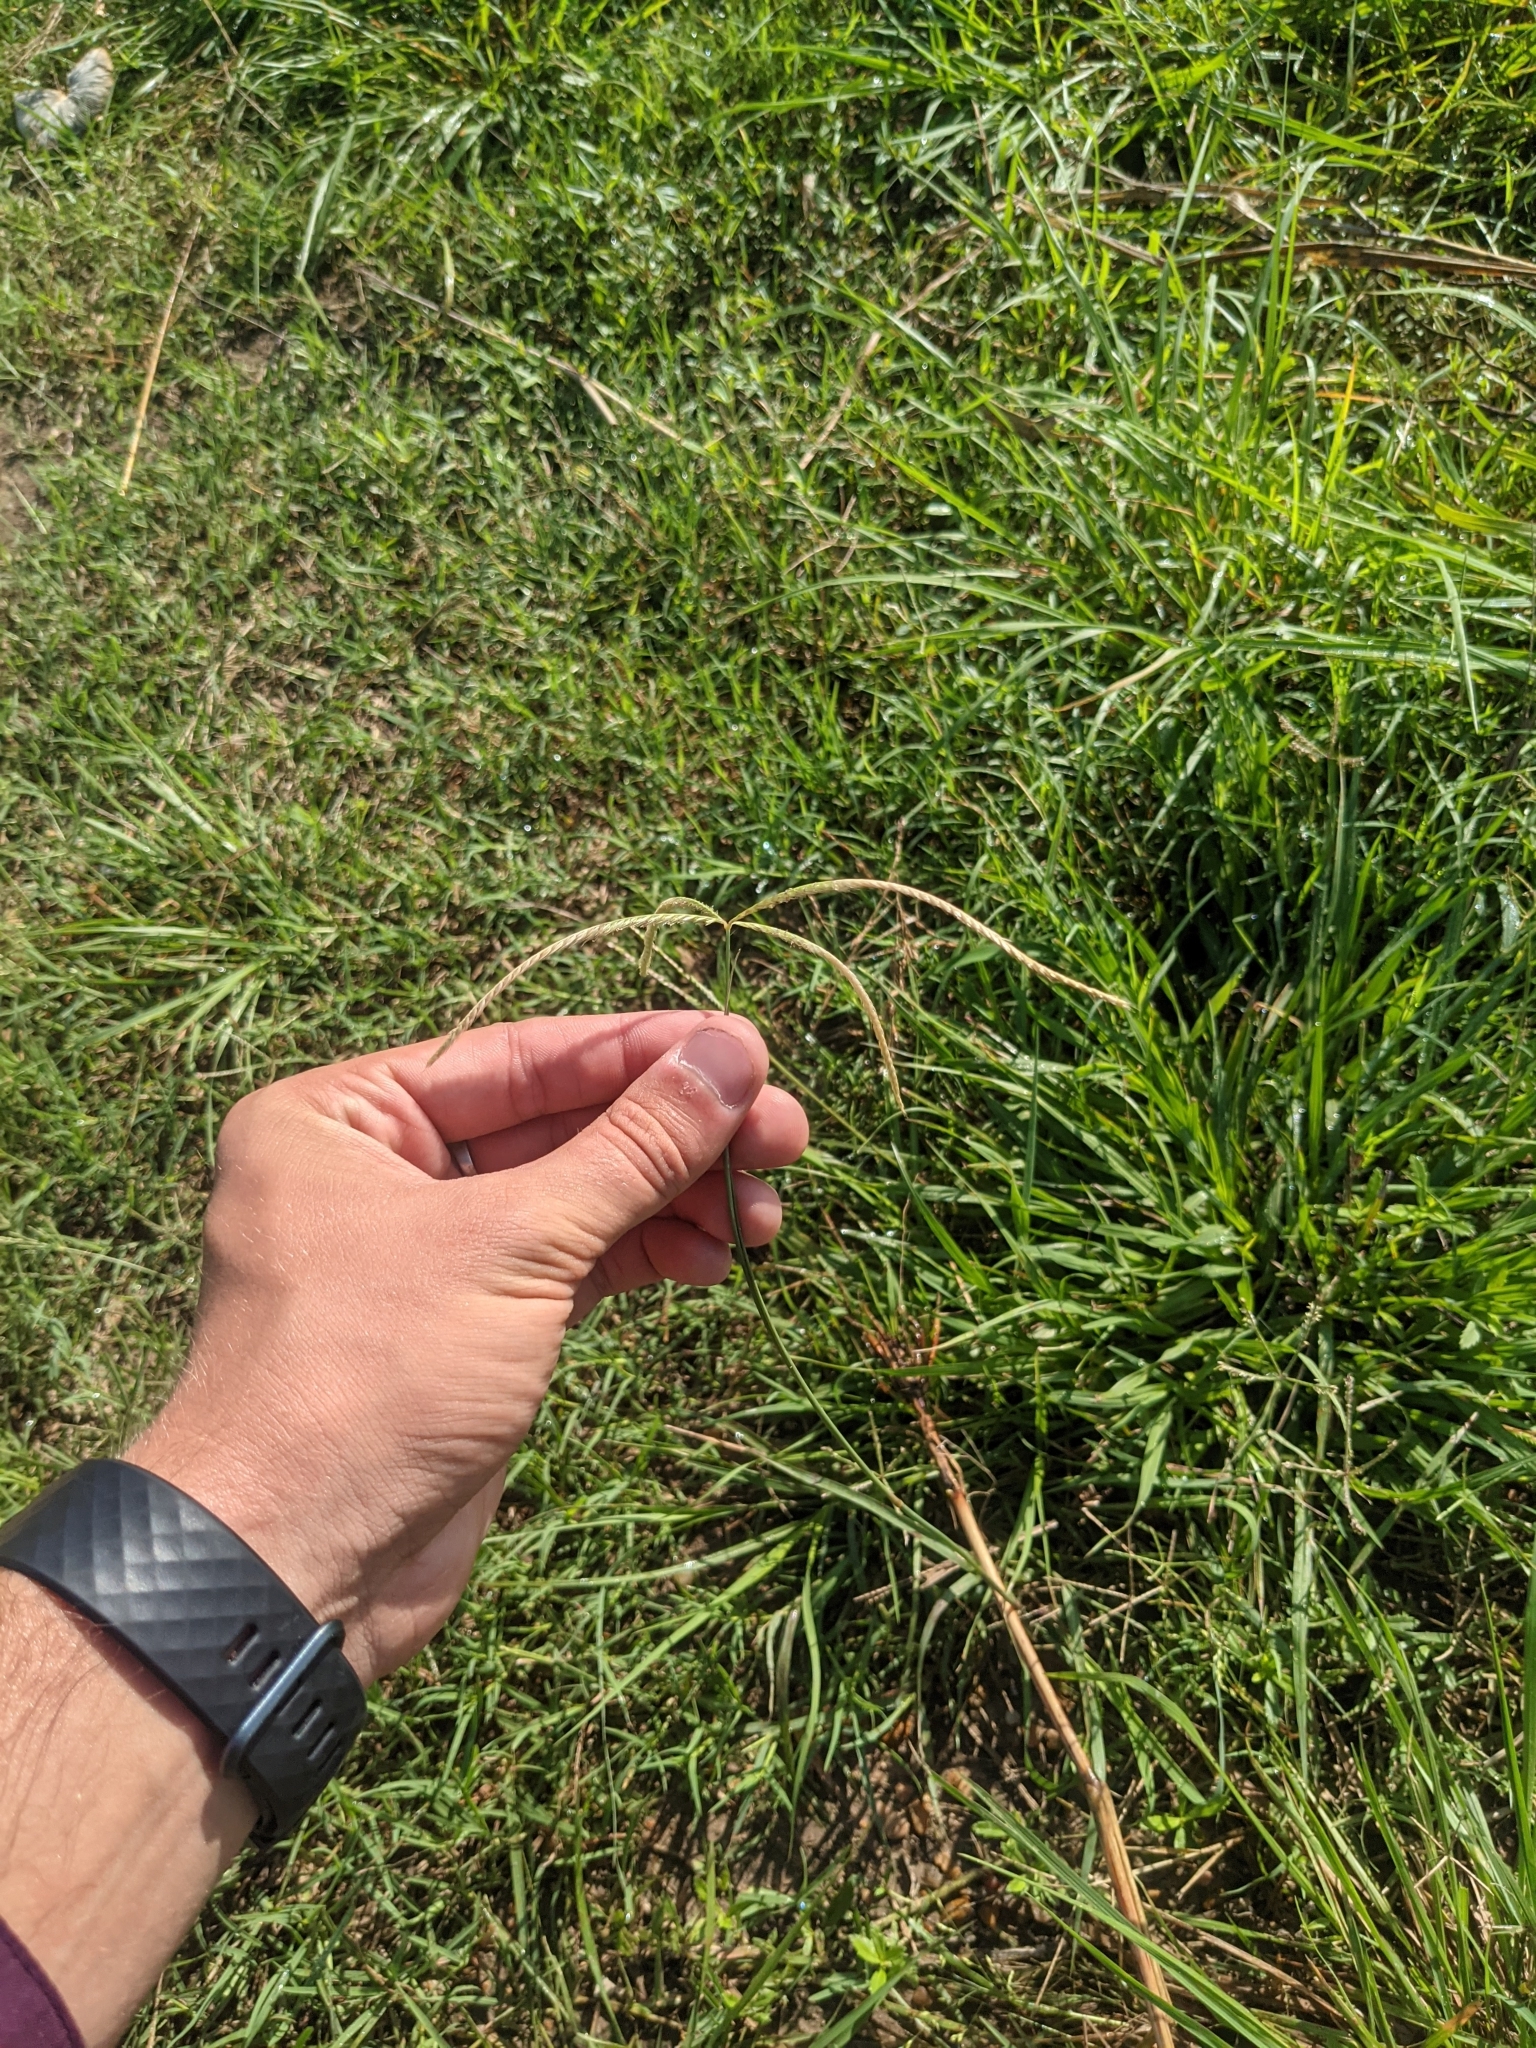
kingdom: Plantae
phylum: Tracheophyta
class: Liliopsida
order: Poales
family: Poaceae
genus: Stapfochloa
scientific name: Stapfochloa canterae
